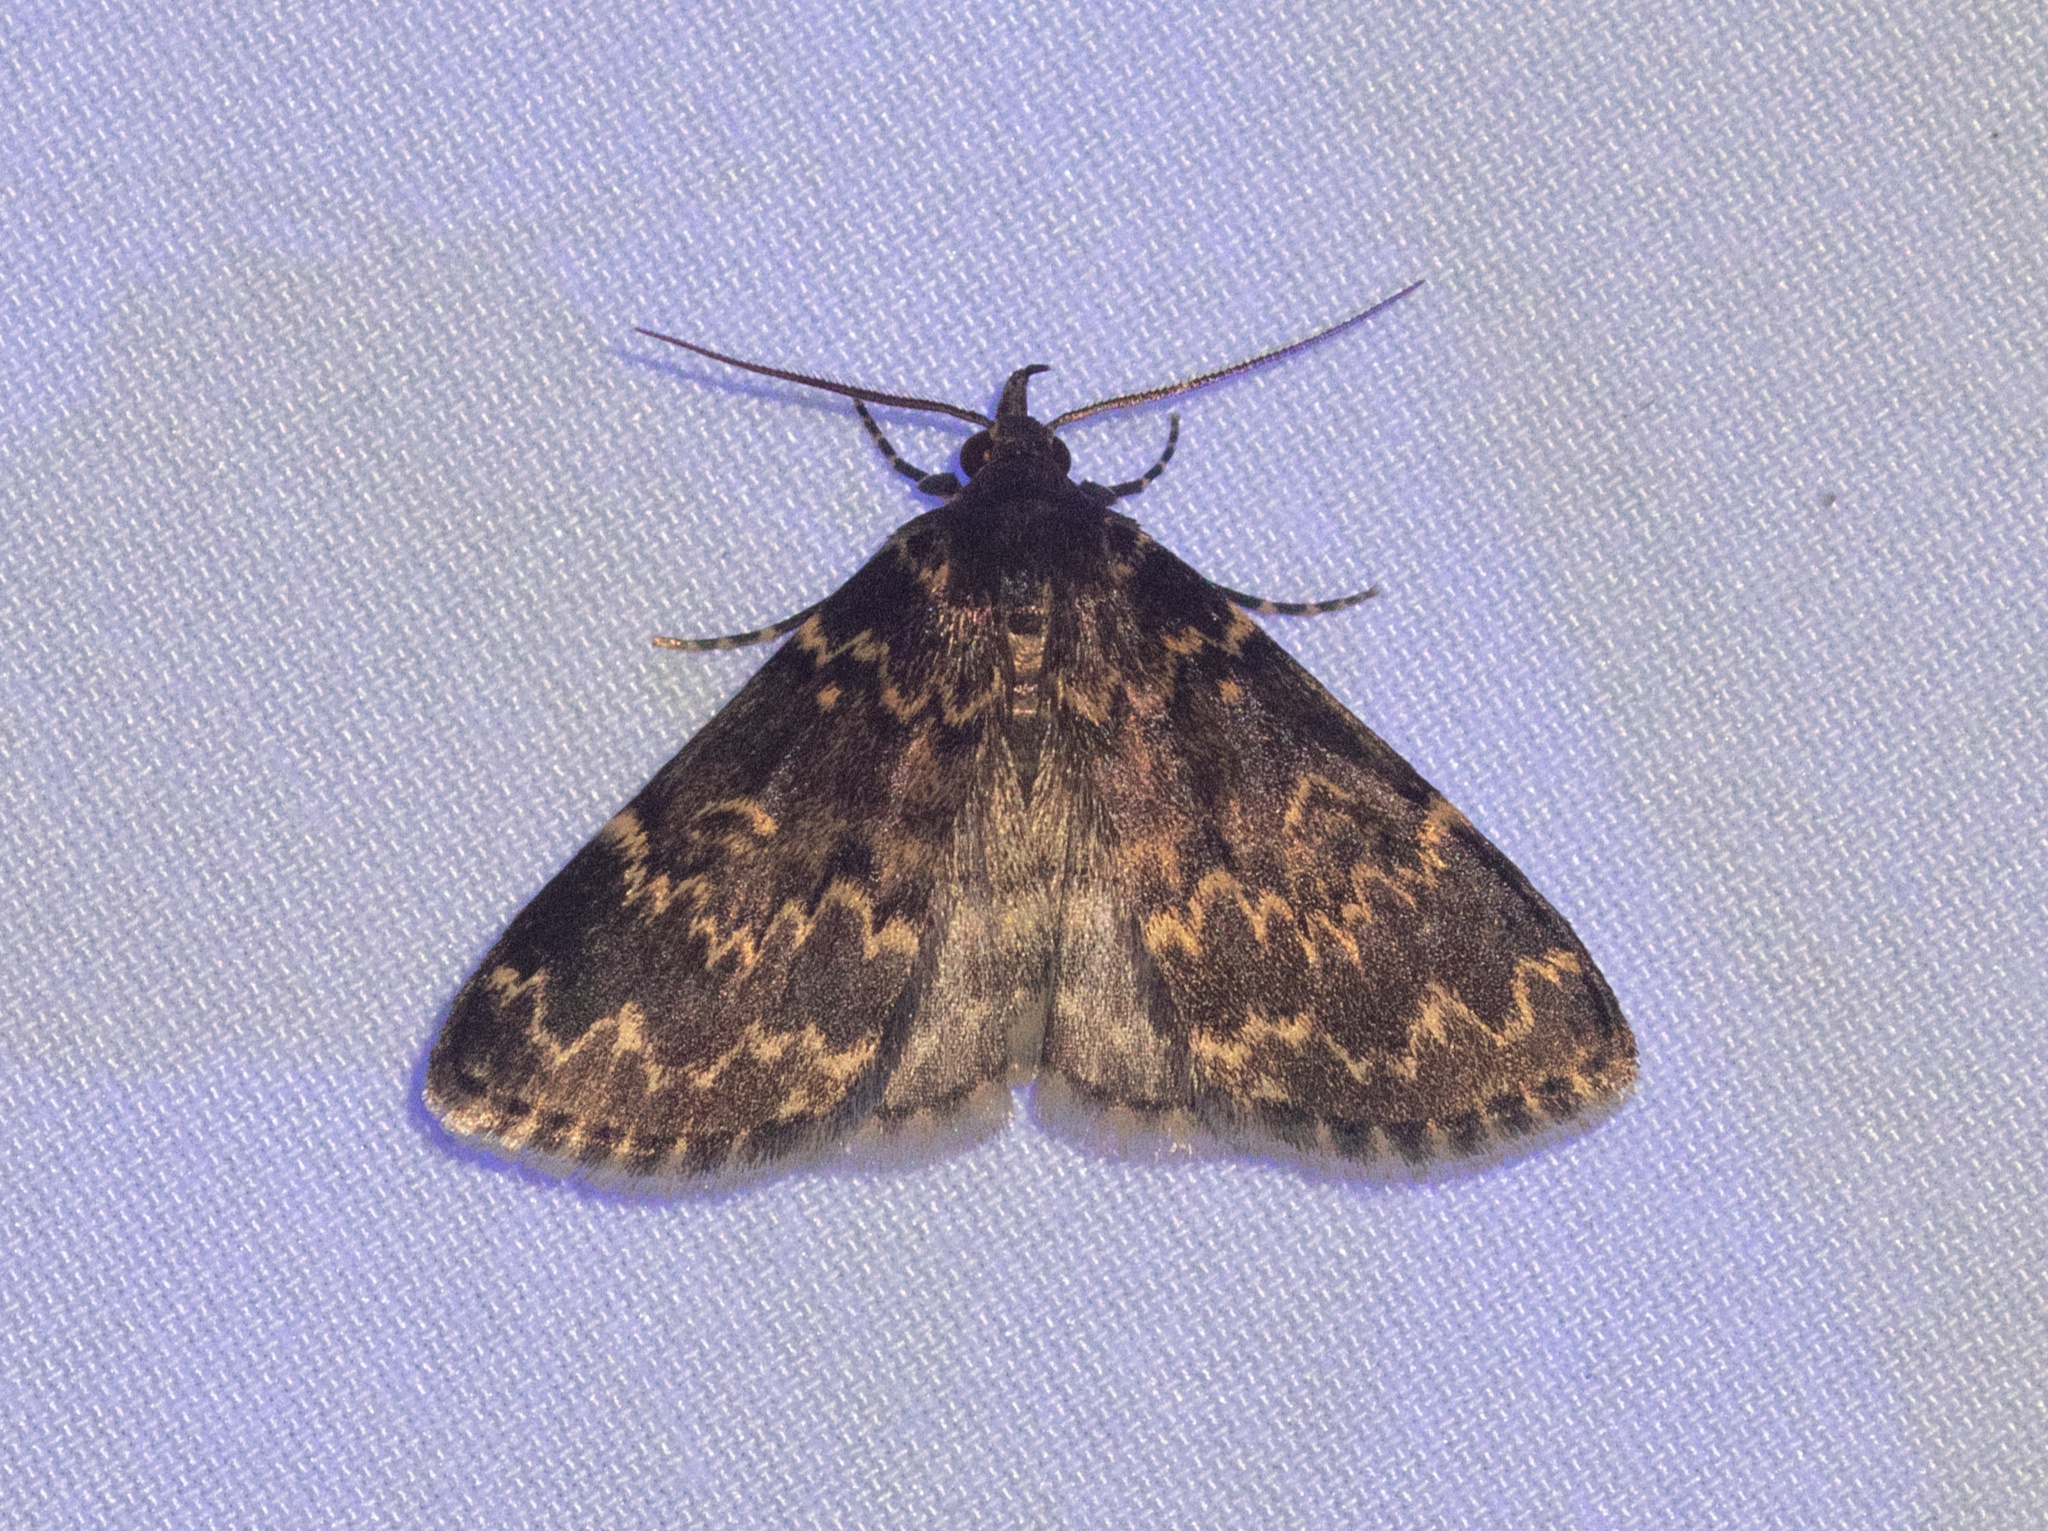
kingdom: Animalia
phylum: Arthropoda
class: Insecta
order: Lepidoptera
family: Erebidae
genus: Idia
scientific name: Idia lubricalis
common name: Twin-striped tabby
